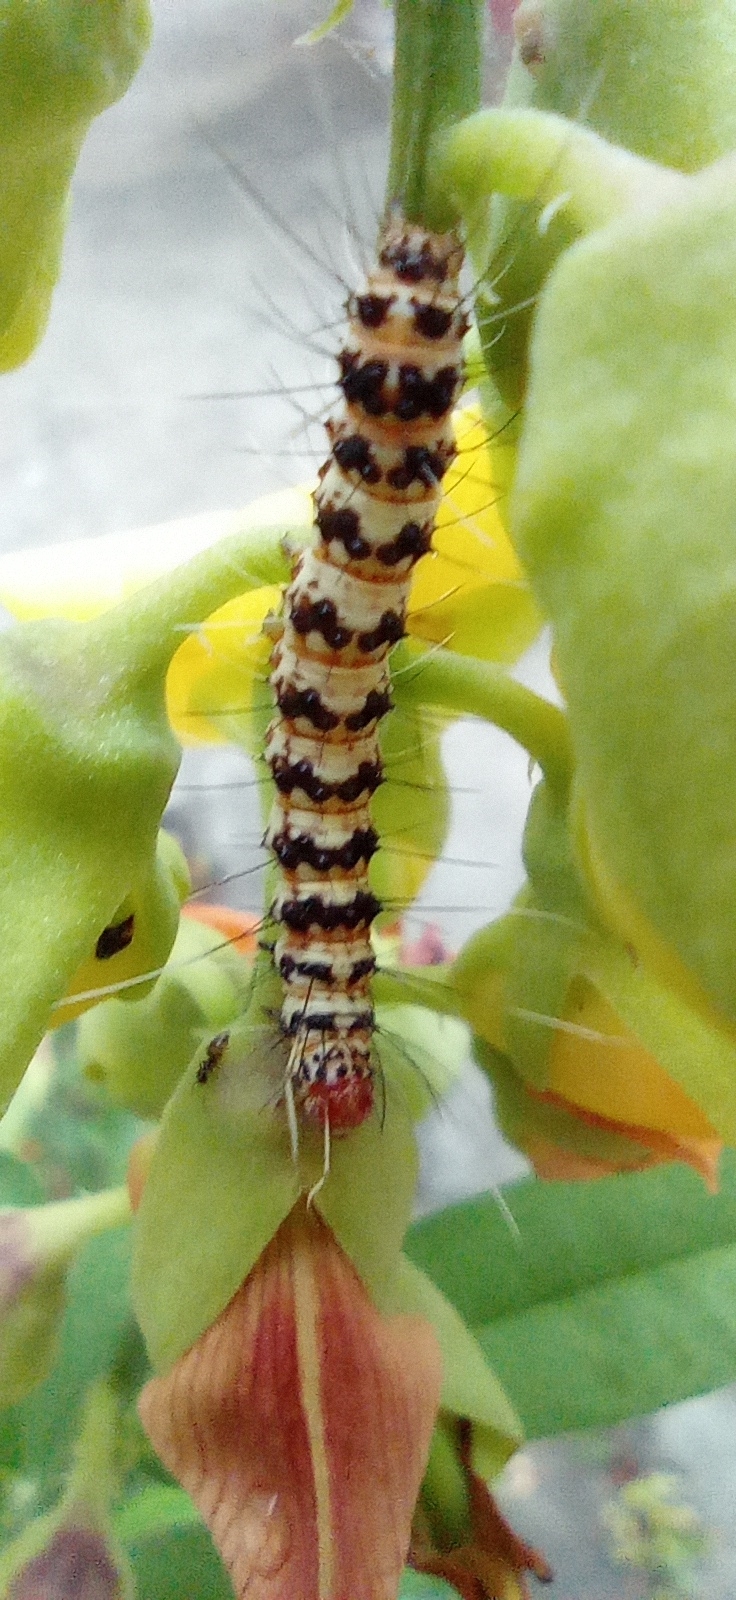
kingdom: Animalia
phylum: Arthropoda
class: Insecta
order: Lepidoptera
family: Erebidae
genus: Utetheisa
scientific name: Utetheisa ornatrix
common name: Beautiful utetheisa
